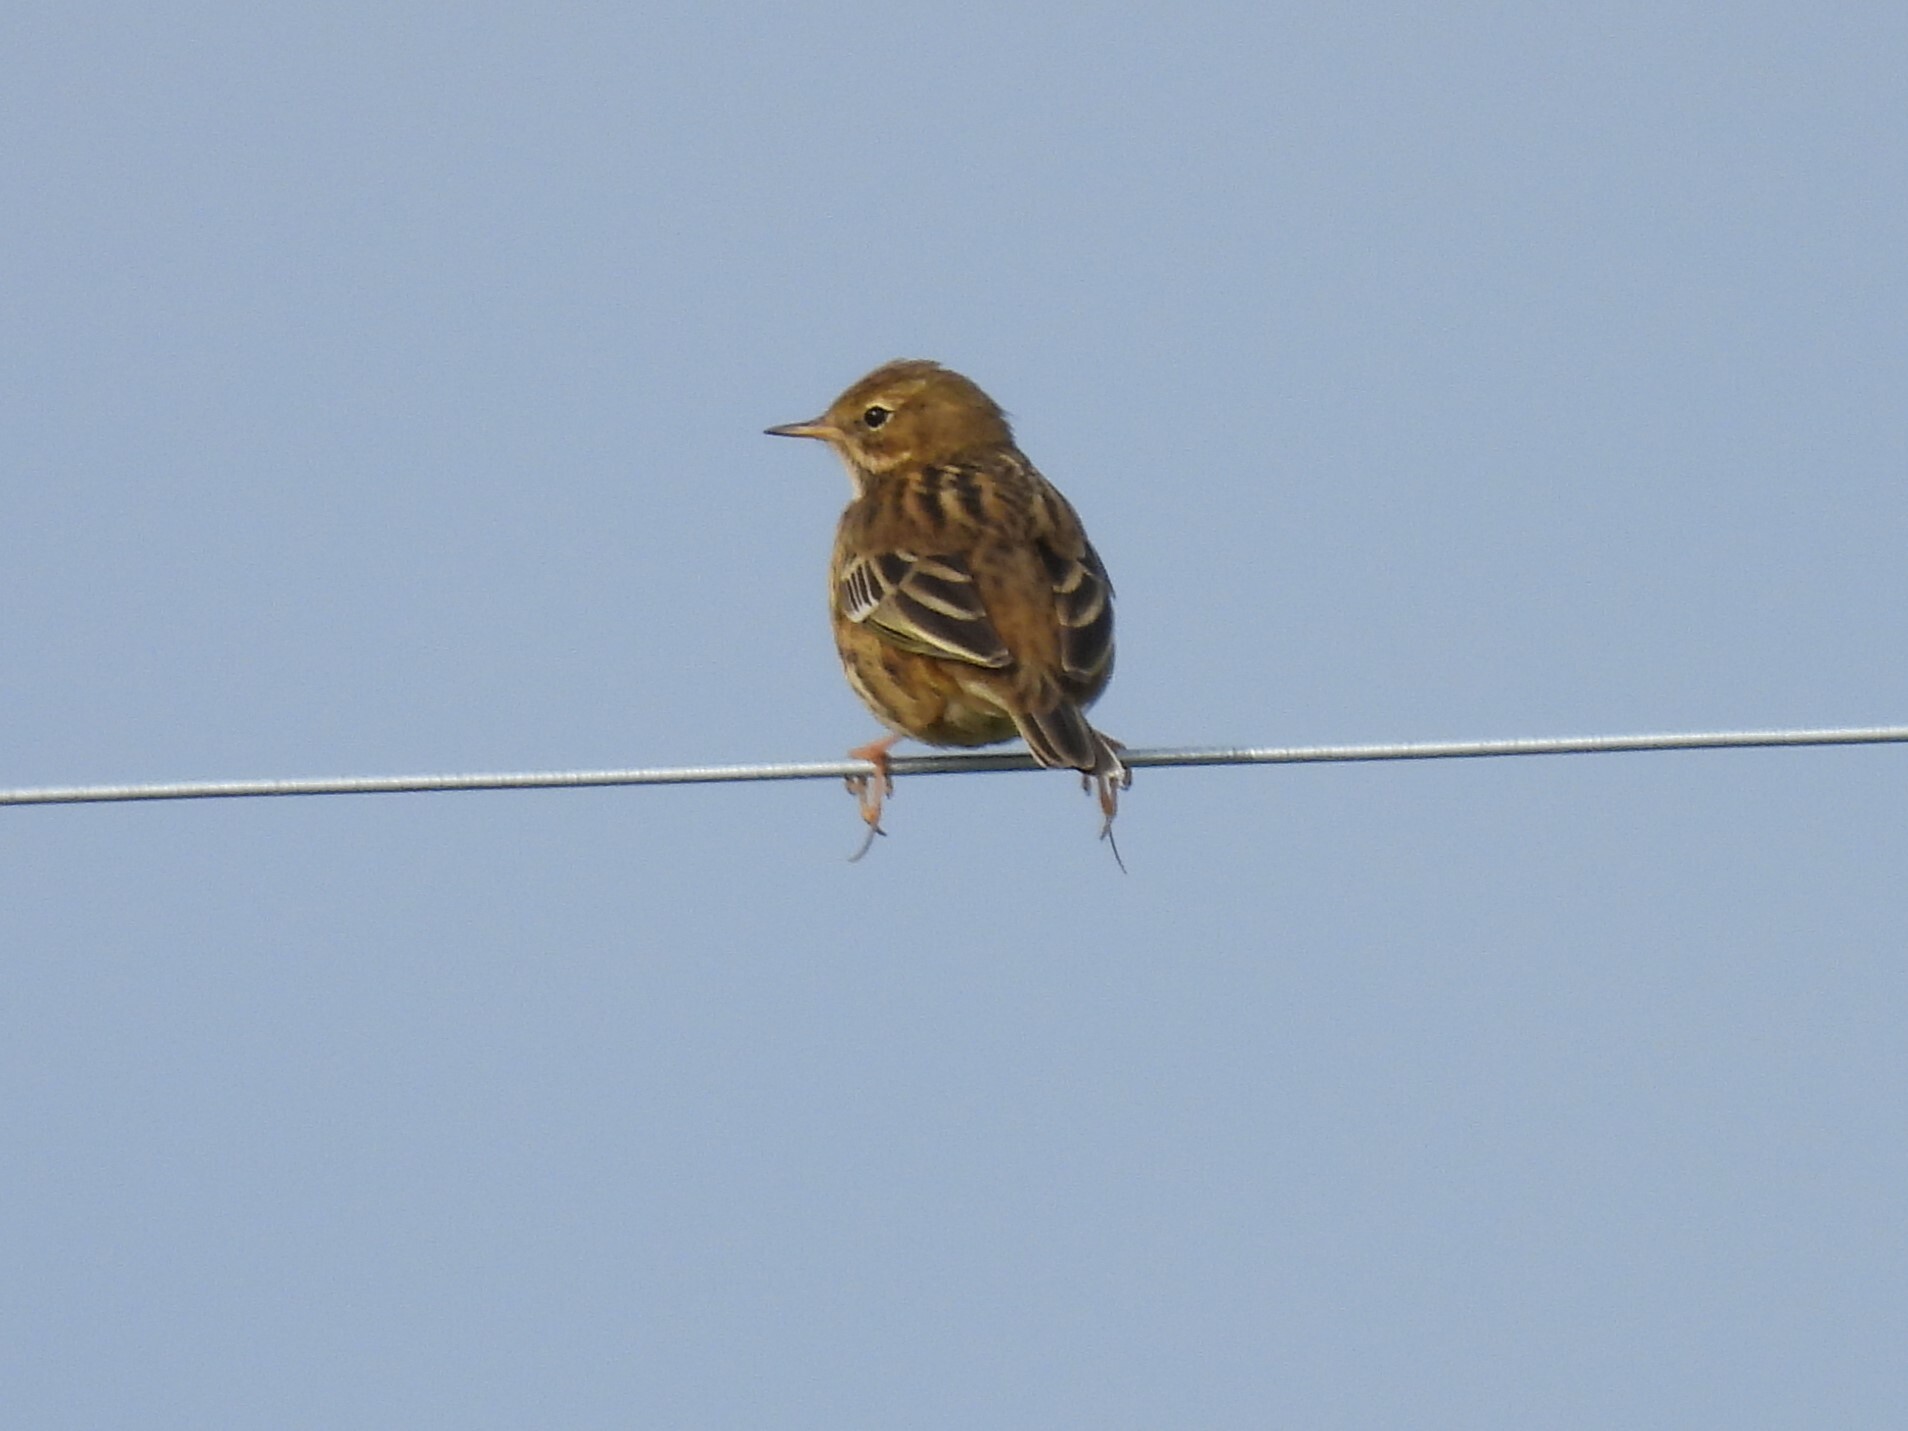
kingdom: Animalia
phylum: Chordata
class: Aves
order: Passeriformes
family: Motacillidae
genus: Anthus
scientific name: Anthus pratensis
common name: Meadow pipit
